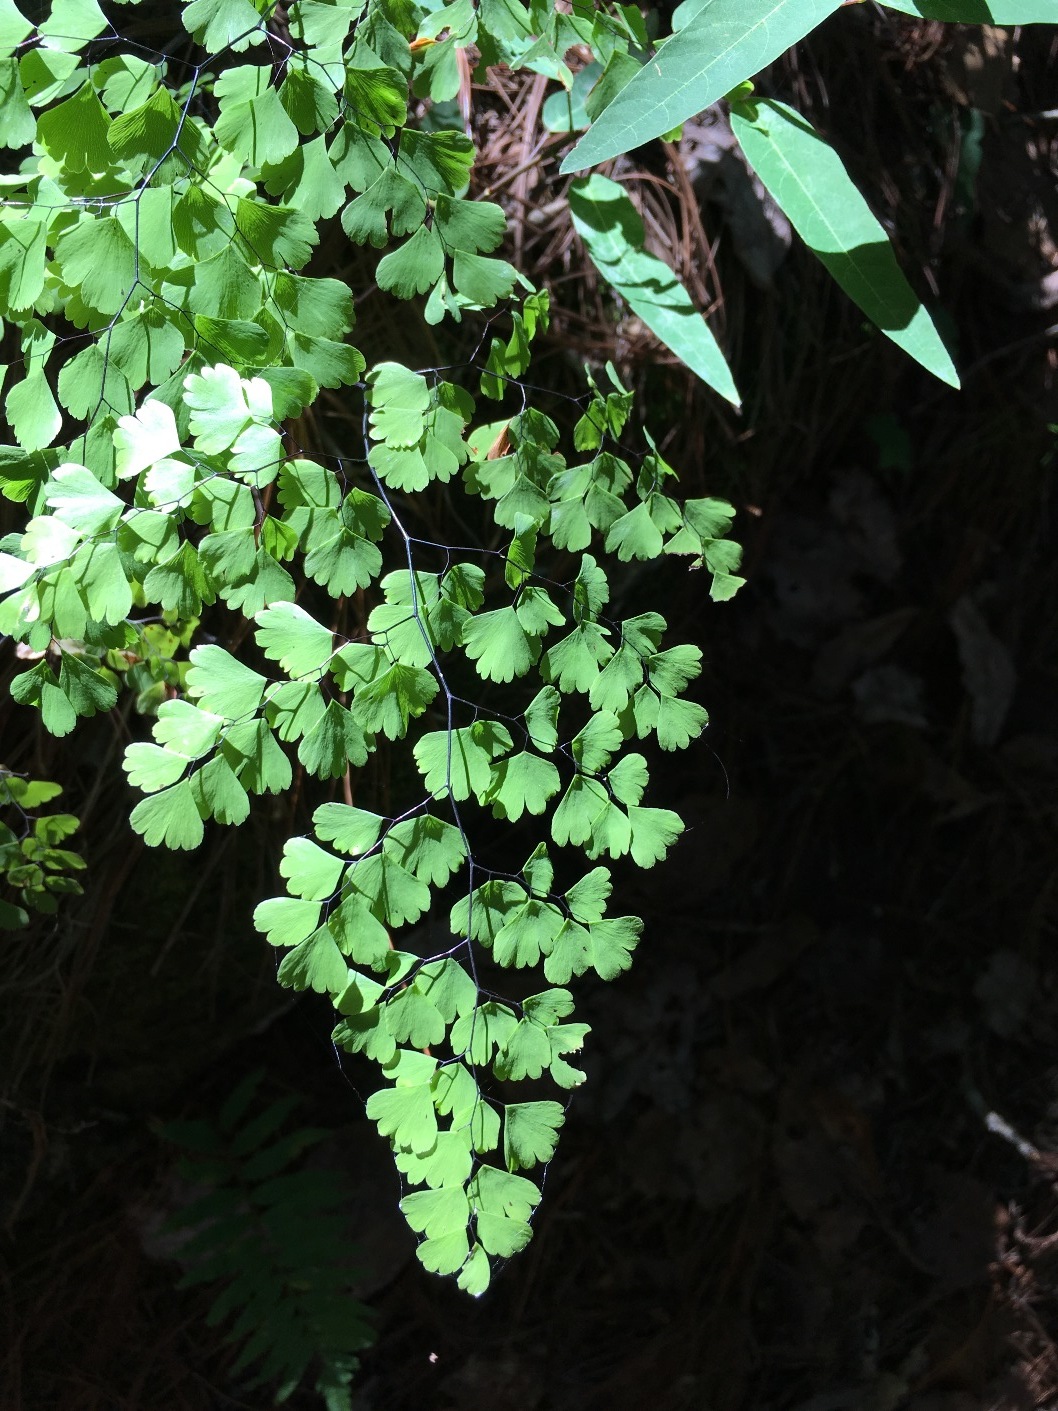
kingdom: Plantae
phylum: Tracheophyta
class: Polypodiopsida
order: Polypodiales
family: Pteridaceae
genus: Adiantum
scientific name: Adiantum andicola
